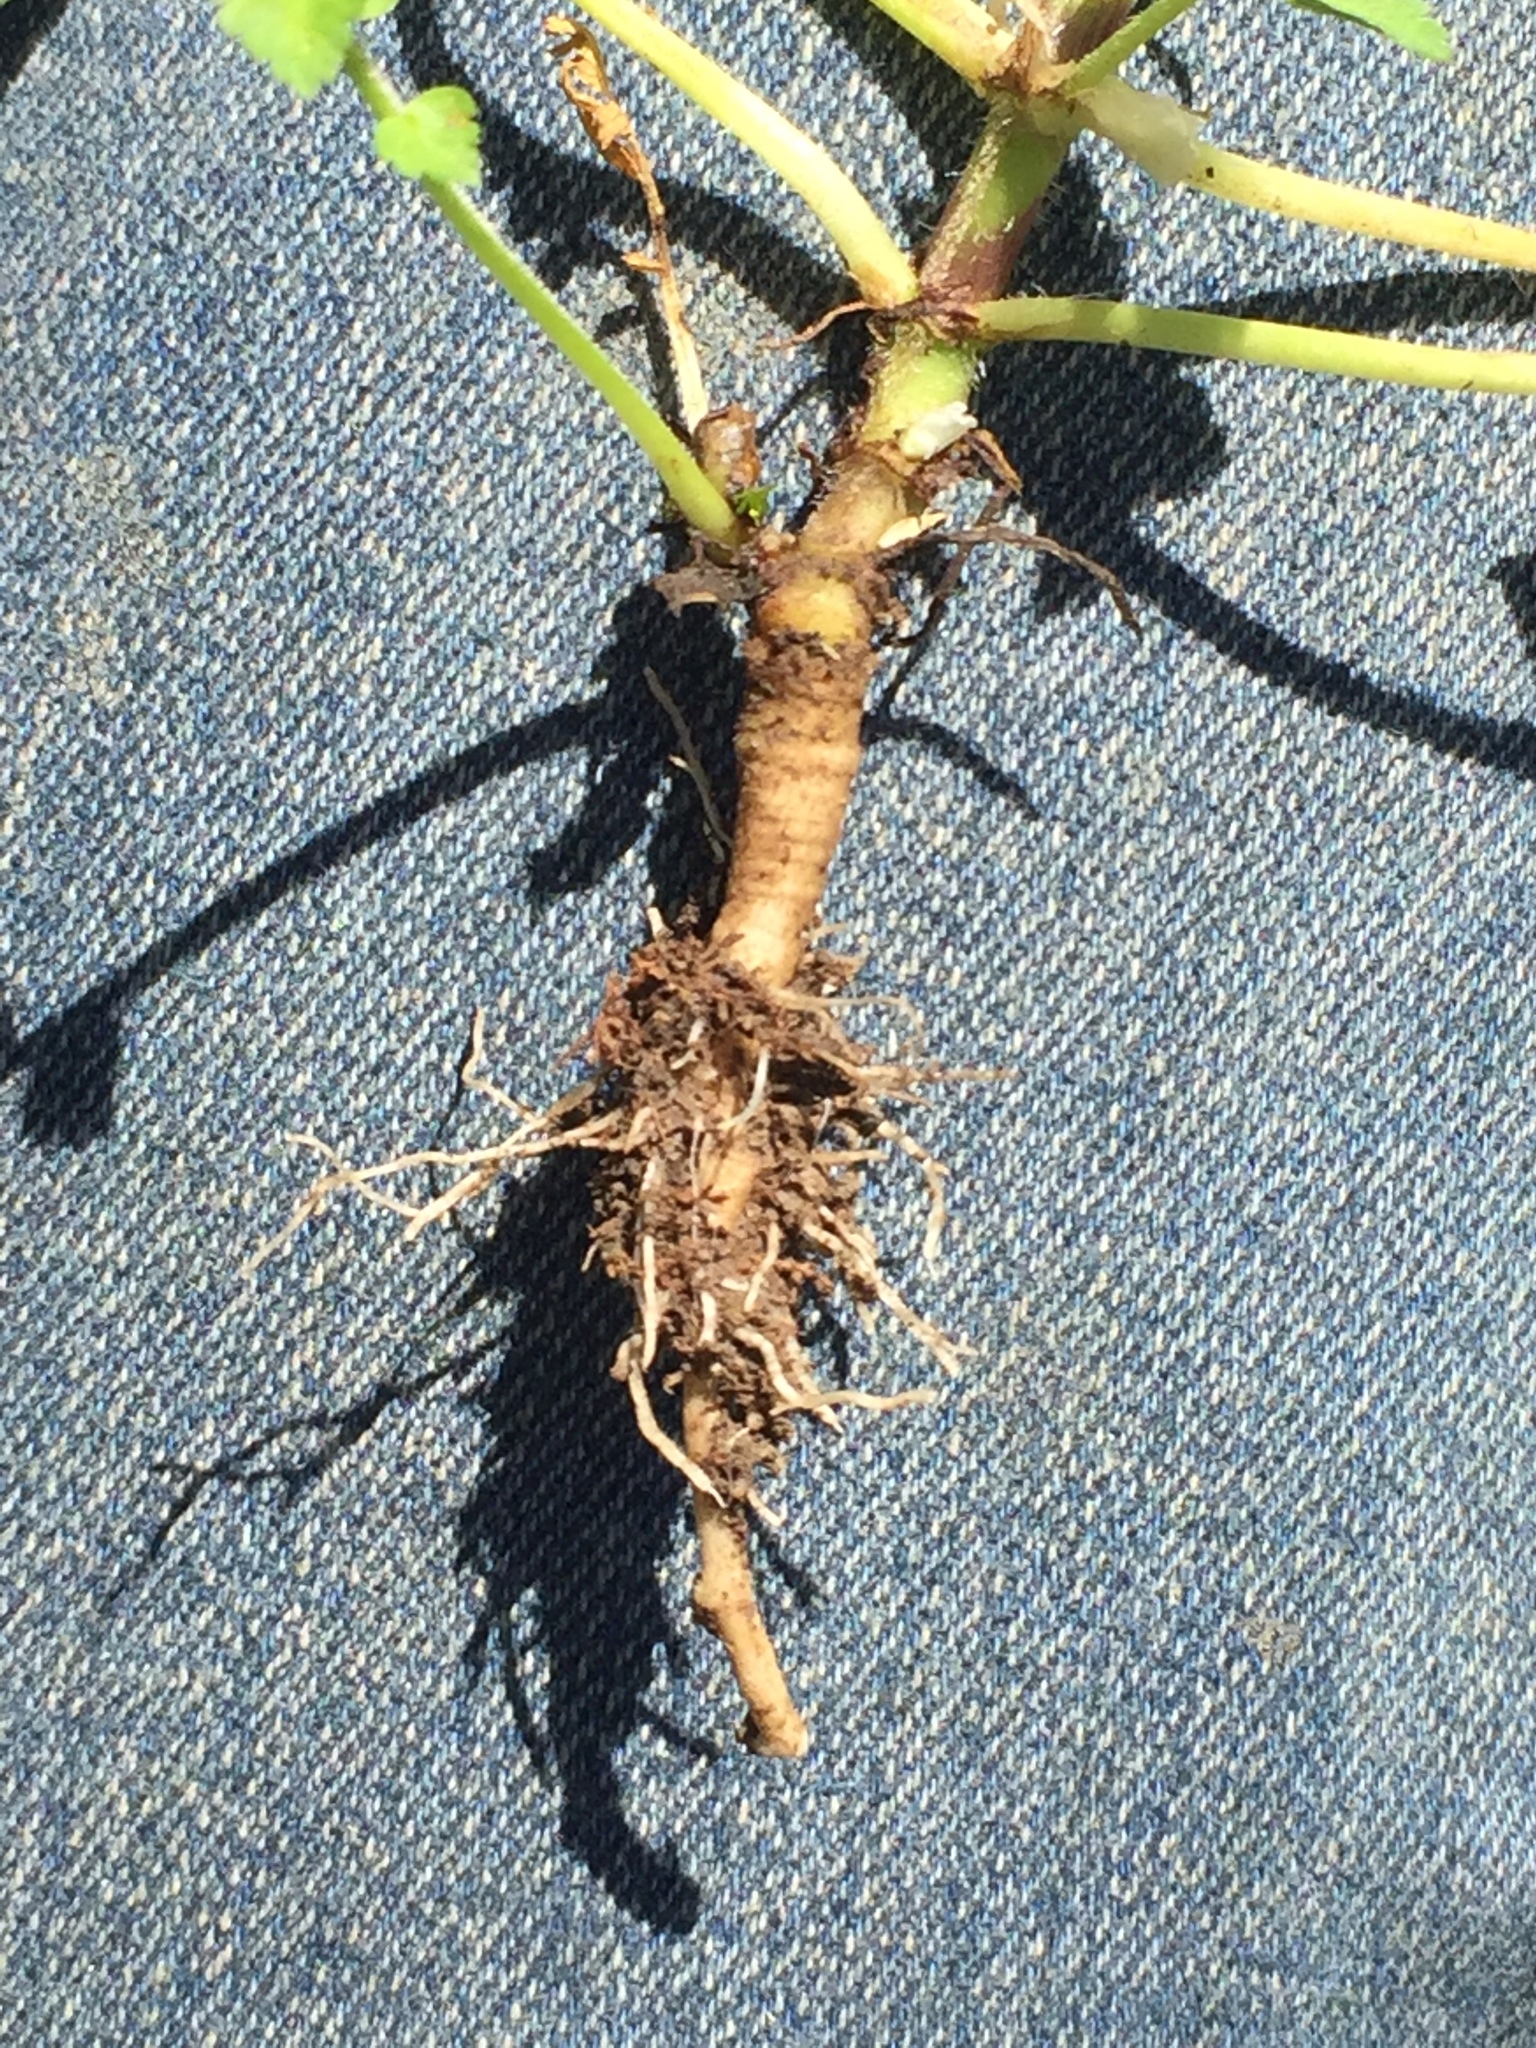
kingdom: Plantae
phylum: Tracheophyta
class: Magnoliopsida
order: Geraniales
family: Geraniaceae
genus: Erodium
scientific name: Erodium moschatum
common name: Musk stork's-bill
